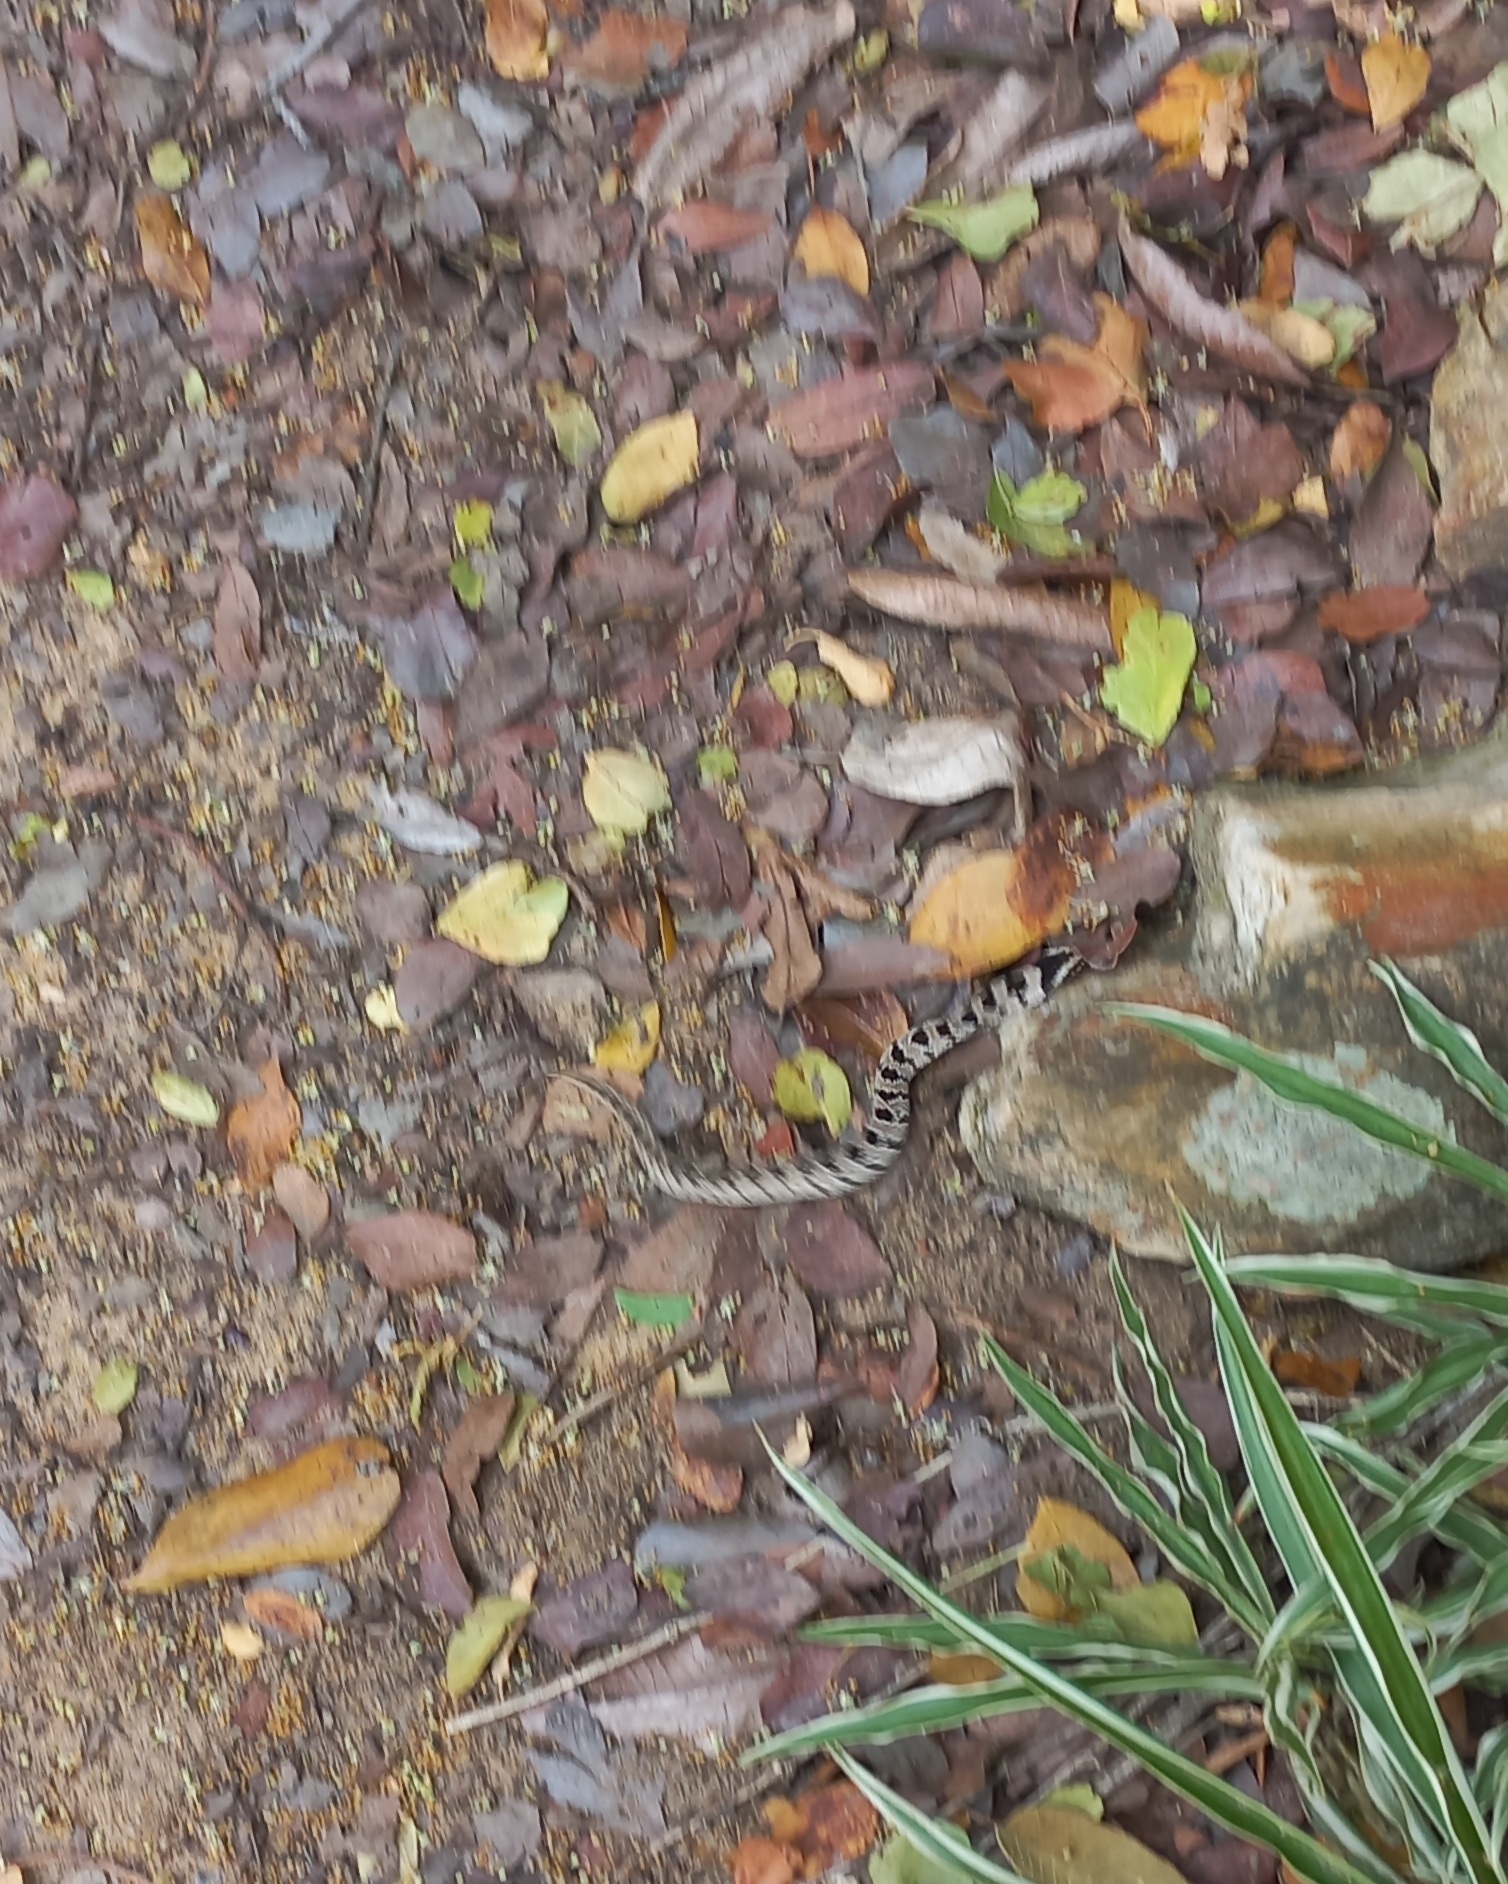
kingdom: Animalia
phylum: Chordata
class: Squamata
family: Viperidae
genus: Causus
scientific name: Causus defilippii
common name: Snouted night adder
